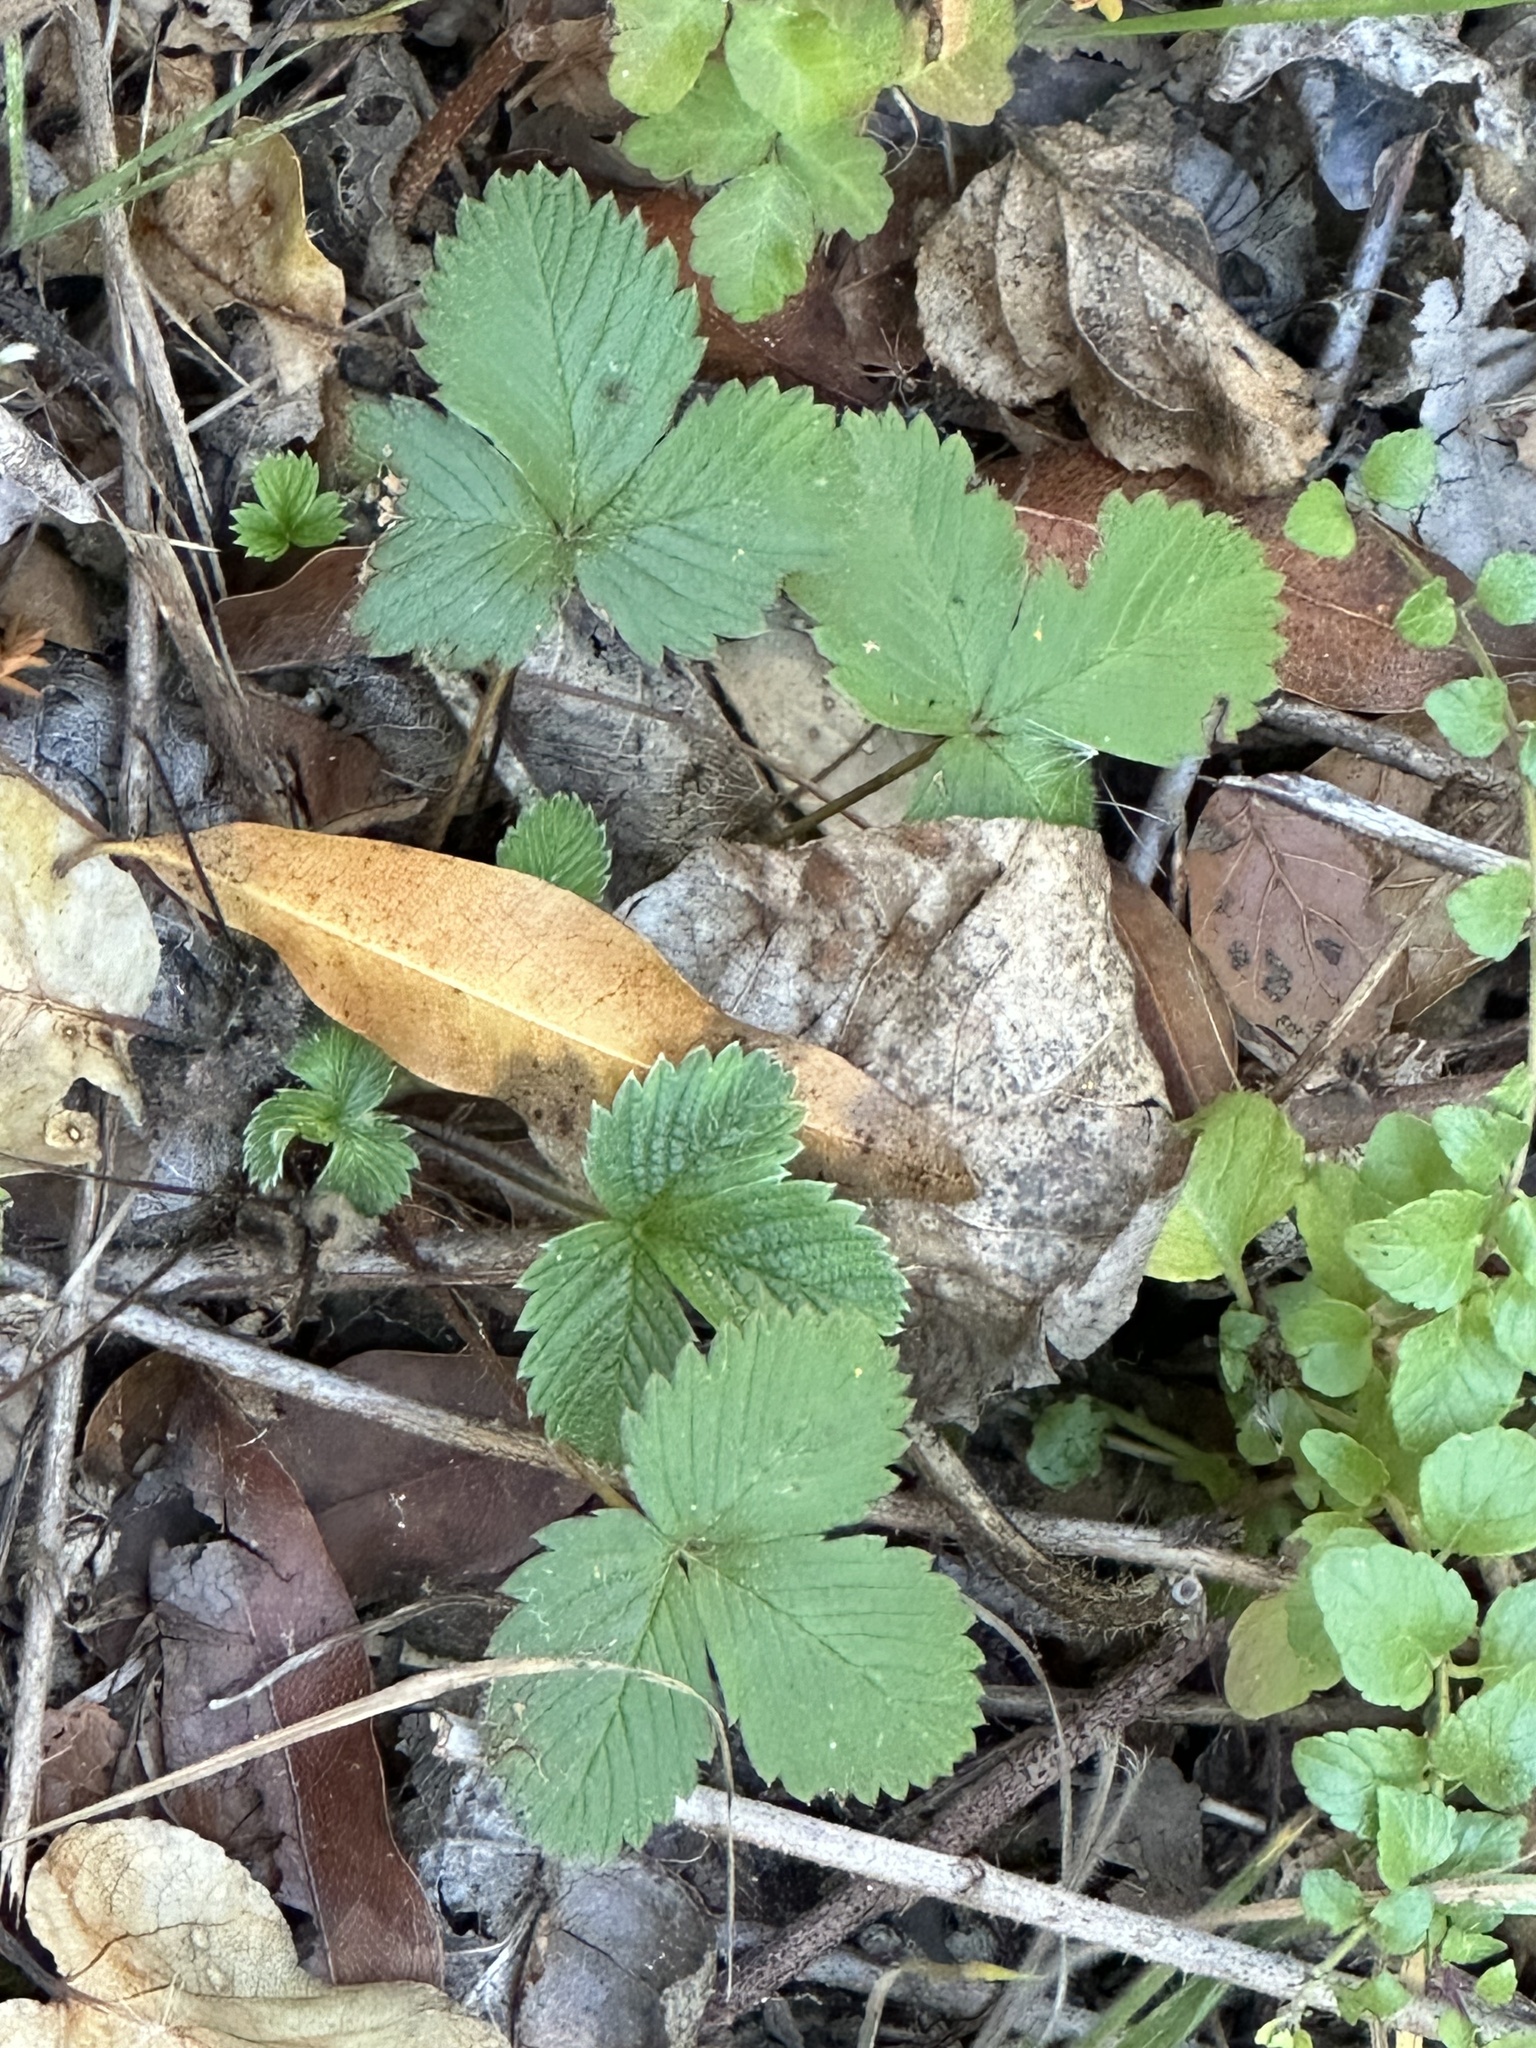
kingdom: Plantae
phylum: Tracheophyta
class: Magnoliopsida
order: Rosales
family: Rosaceae
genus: Fragaria
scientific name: Fragaria vesca
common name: Wild strawberry
